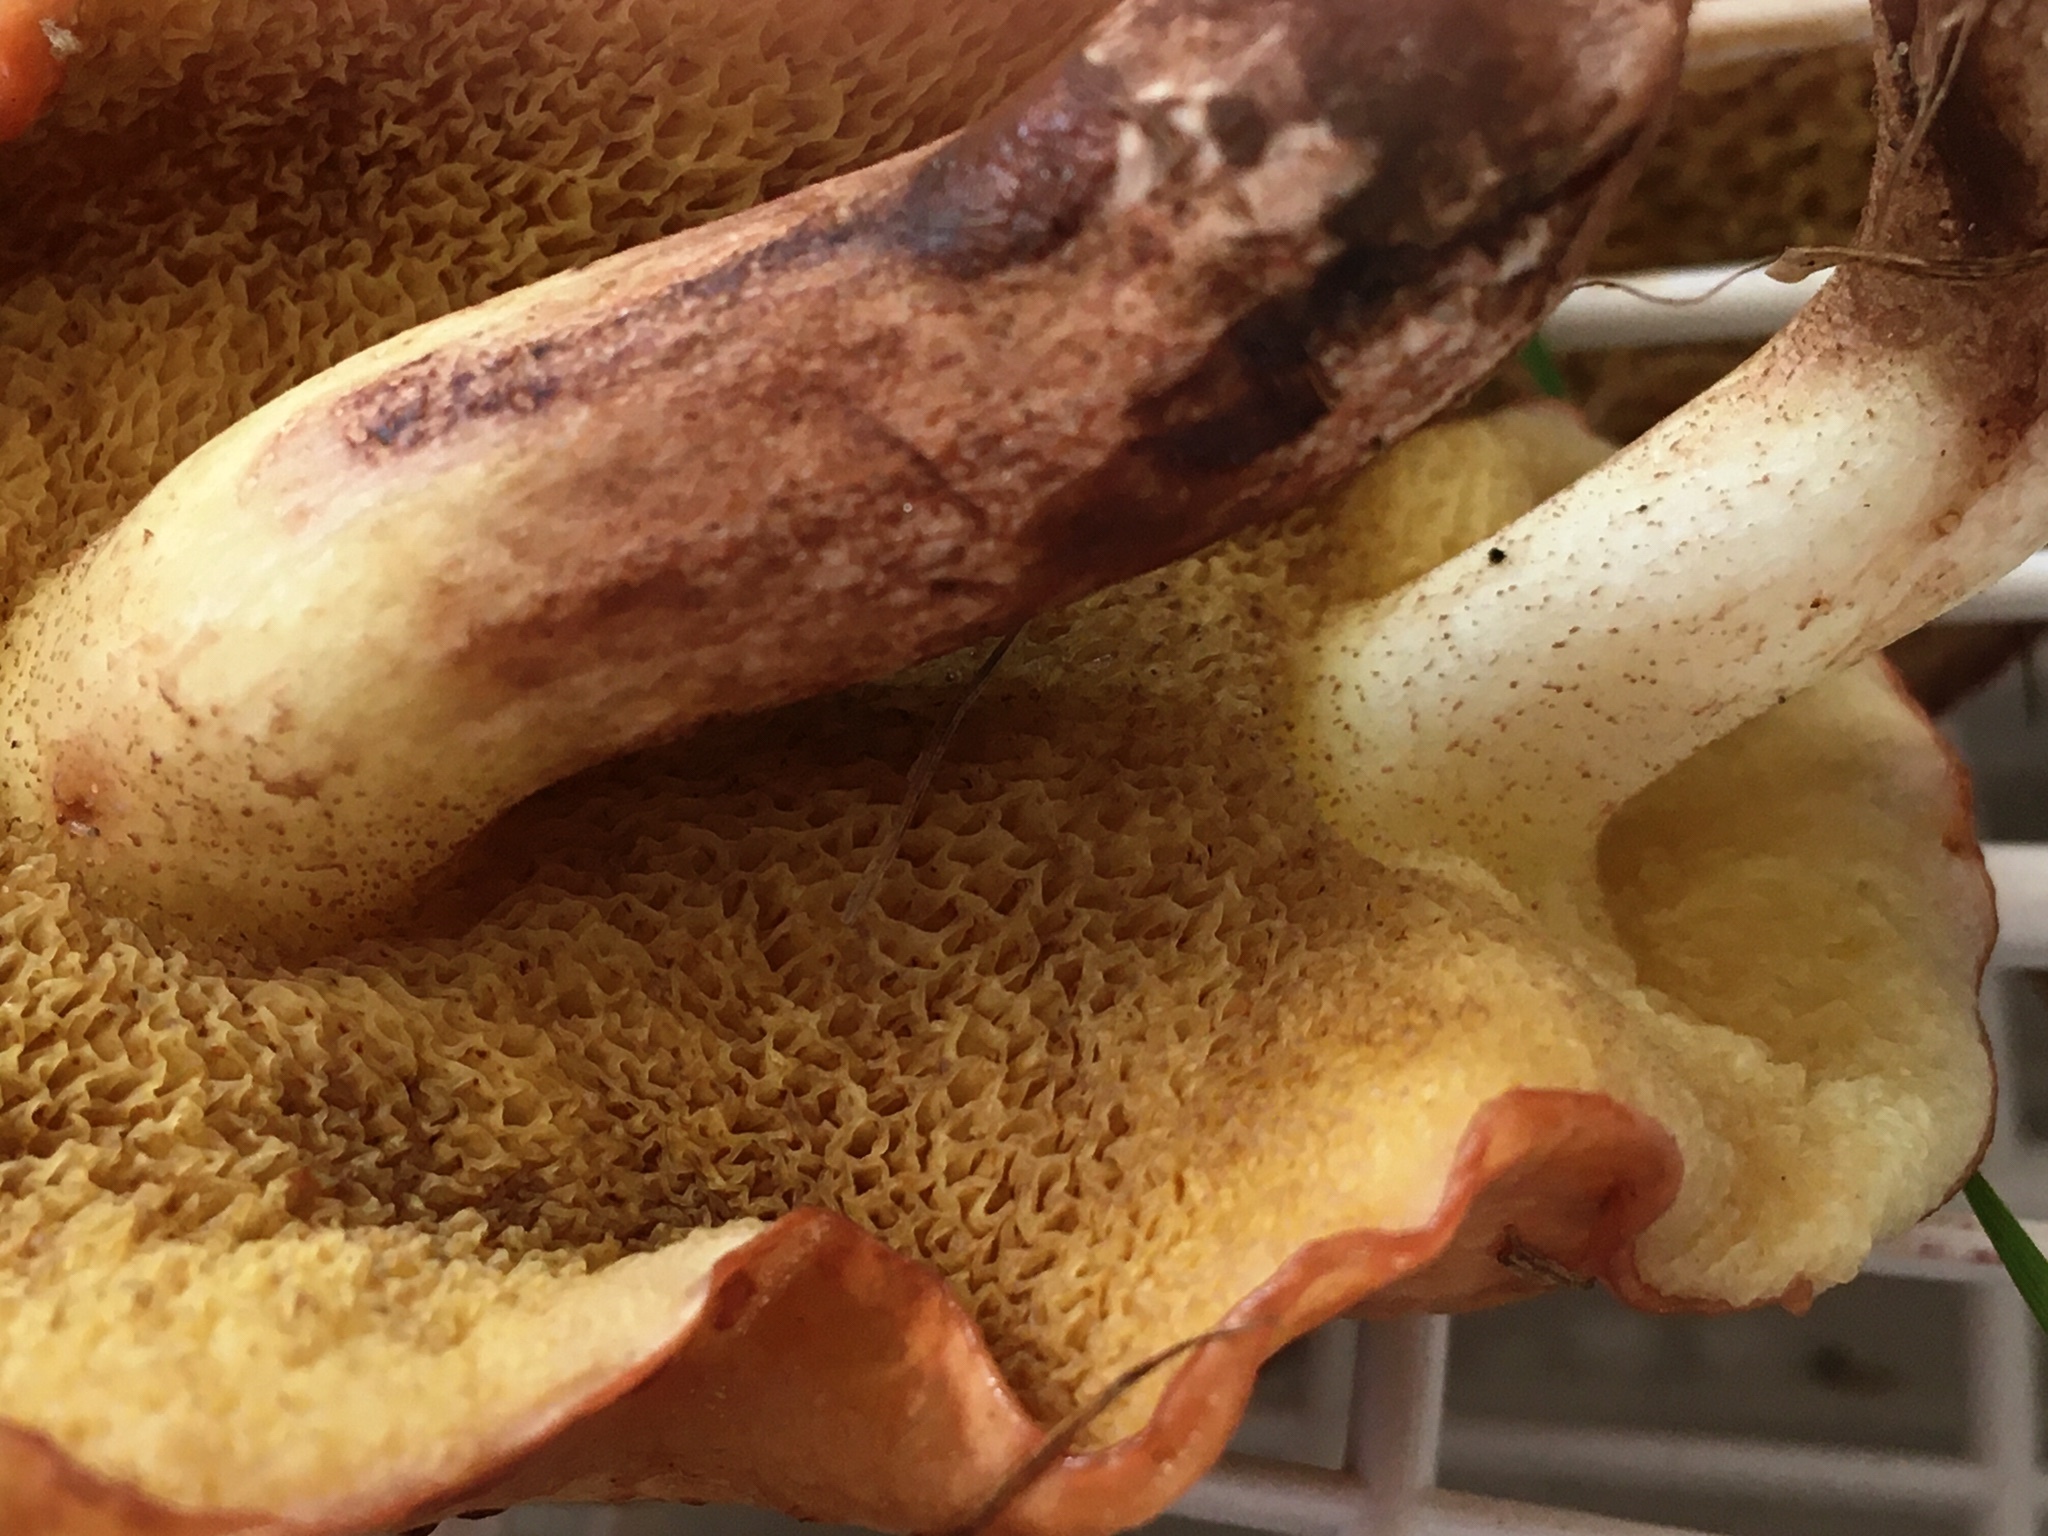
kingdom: Fungi
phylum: Basidiomycota
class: Agaricomycetes
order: Boletales
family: Suillaceae
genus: Suillus
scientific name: Suillus granulatus
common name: Weeping bolete
